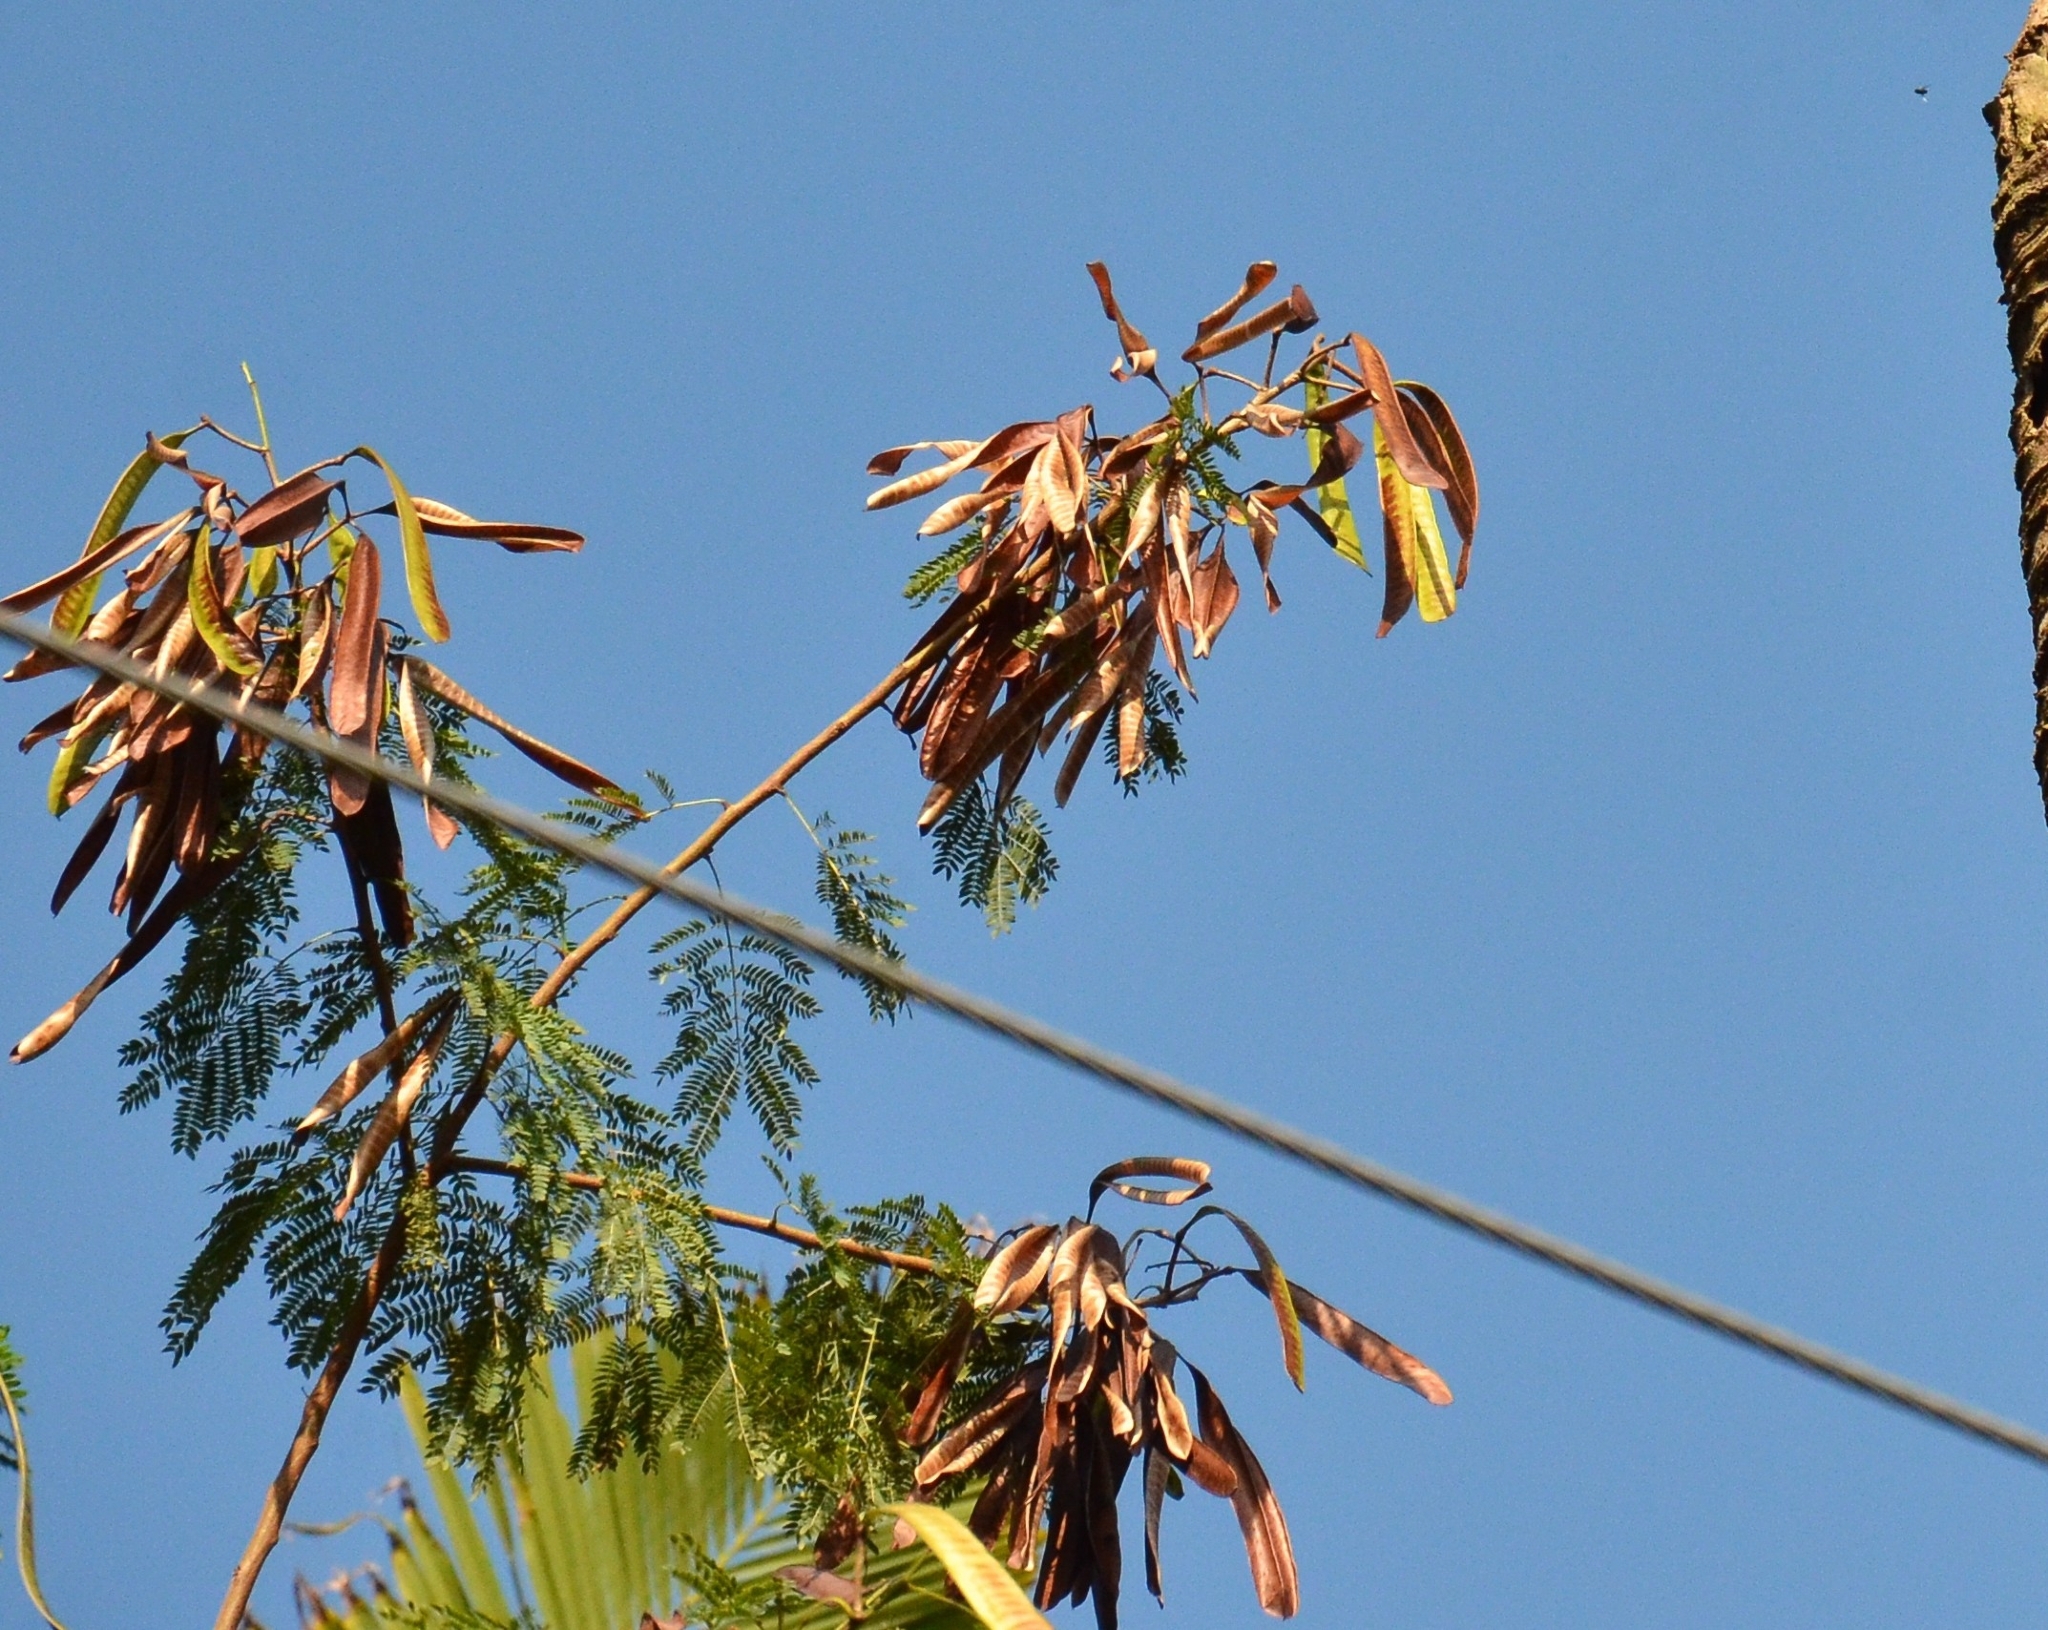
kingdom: Plantae
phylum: Tracheophyta
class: Magnoliopsida
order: Fabales
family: Fabaceae
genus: Leucaena
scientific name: Leucaena leucocephala
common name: White leadtree
